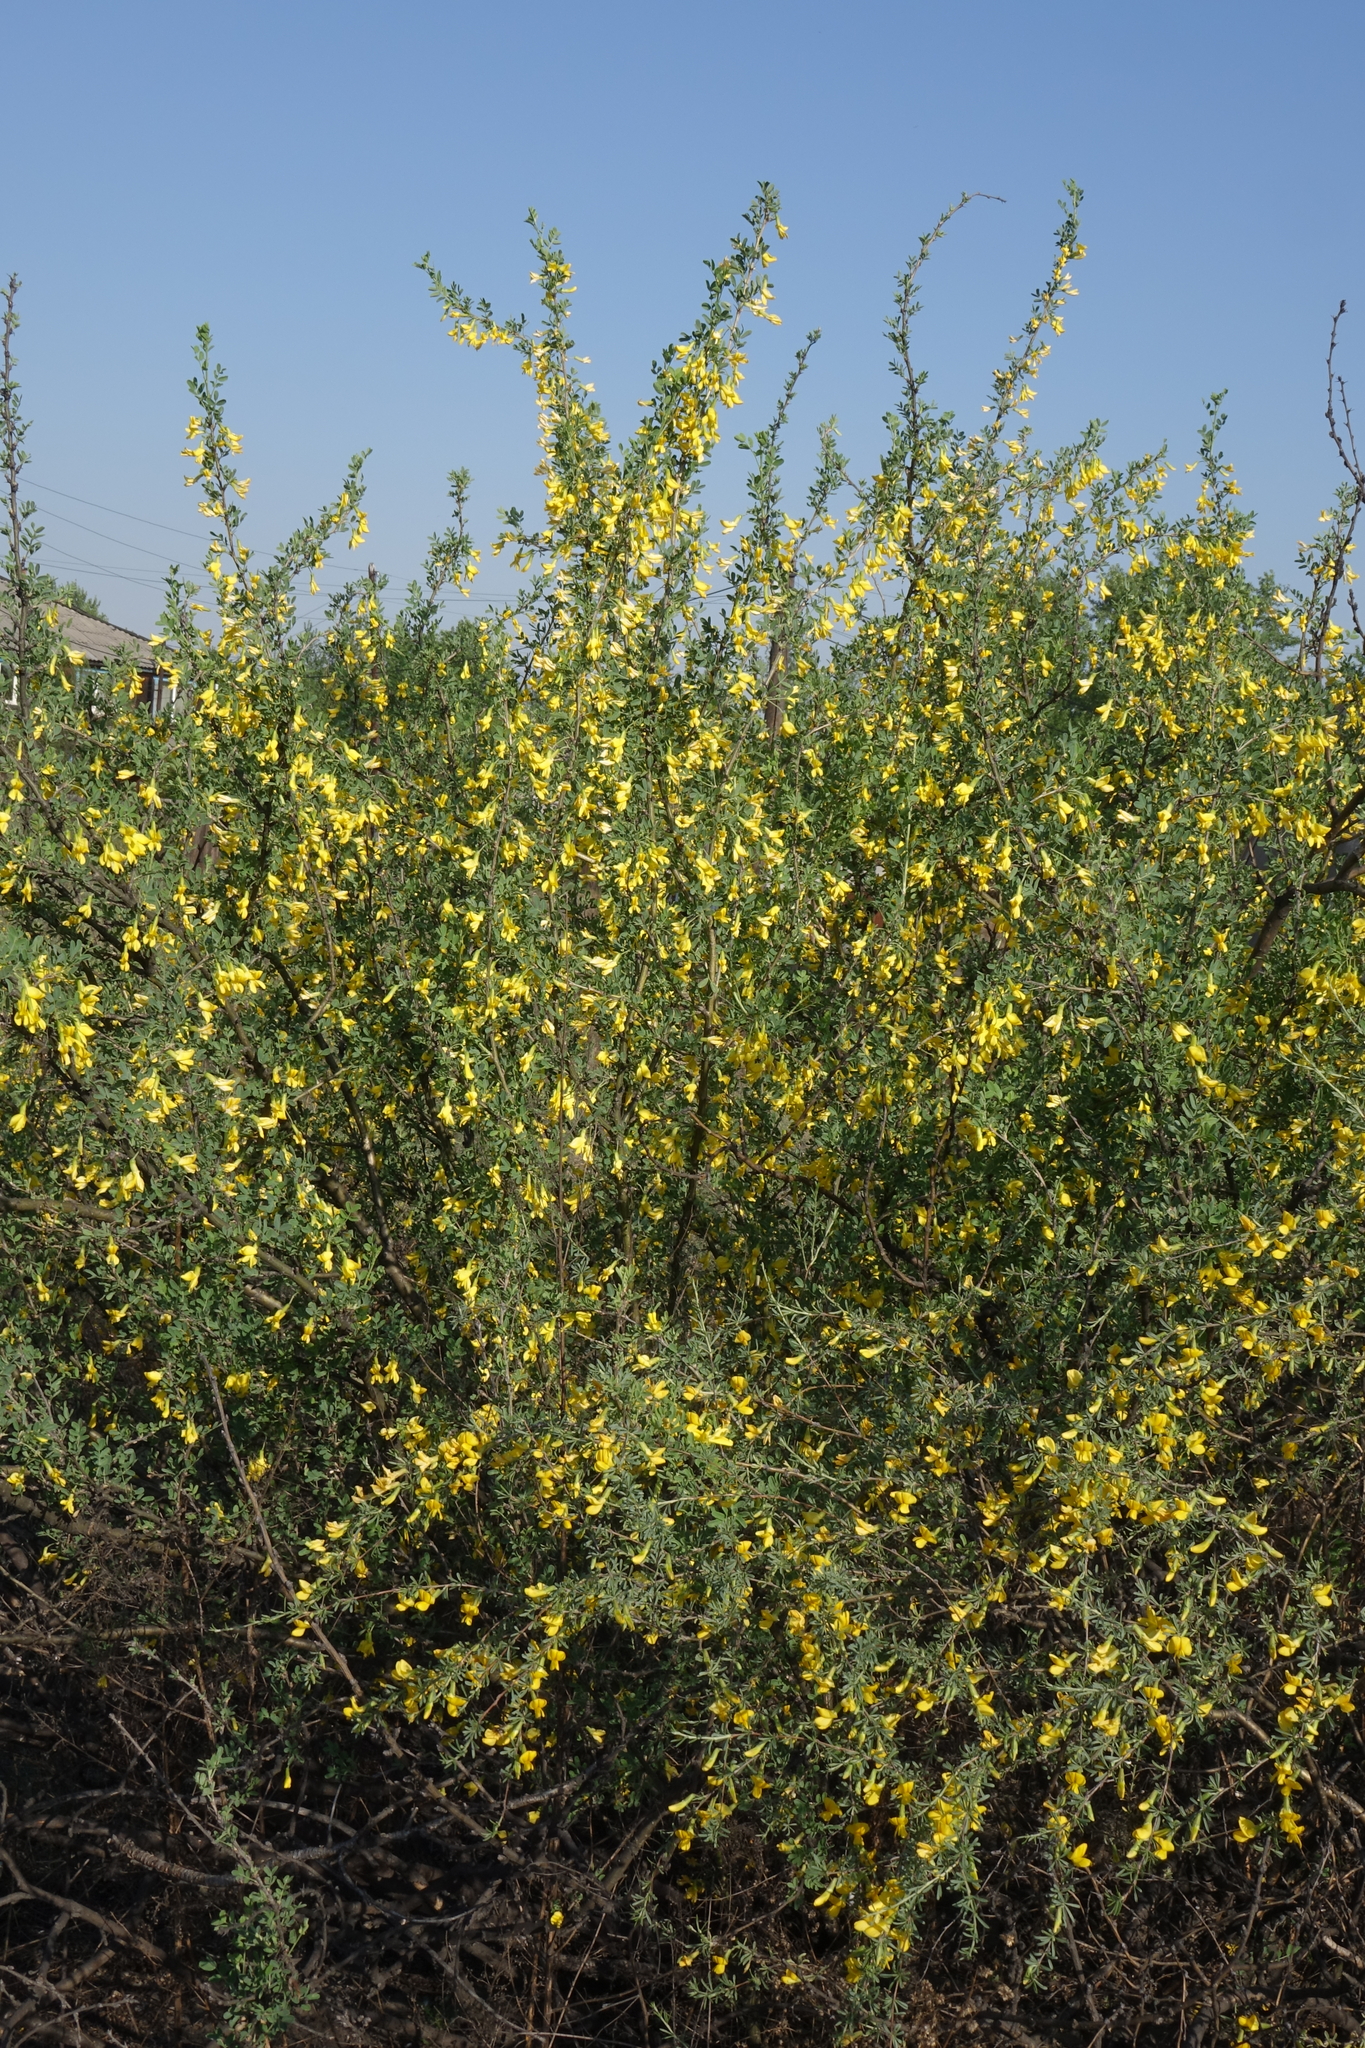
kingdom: Plantae
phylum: Tracheophyta
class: Magnoliopsida
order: Fabales
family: Fabaceae
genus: Caragana
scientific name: Caragana pygmaea
